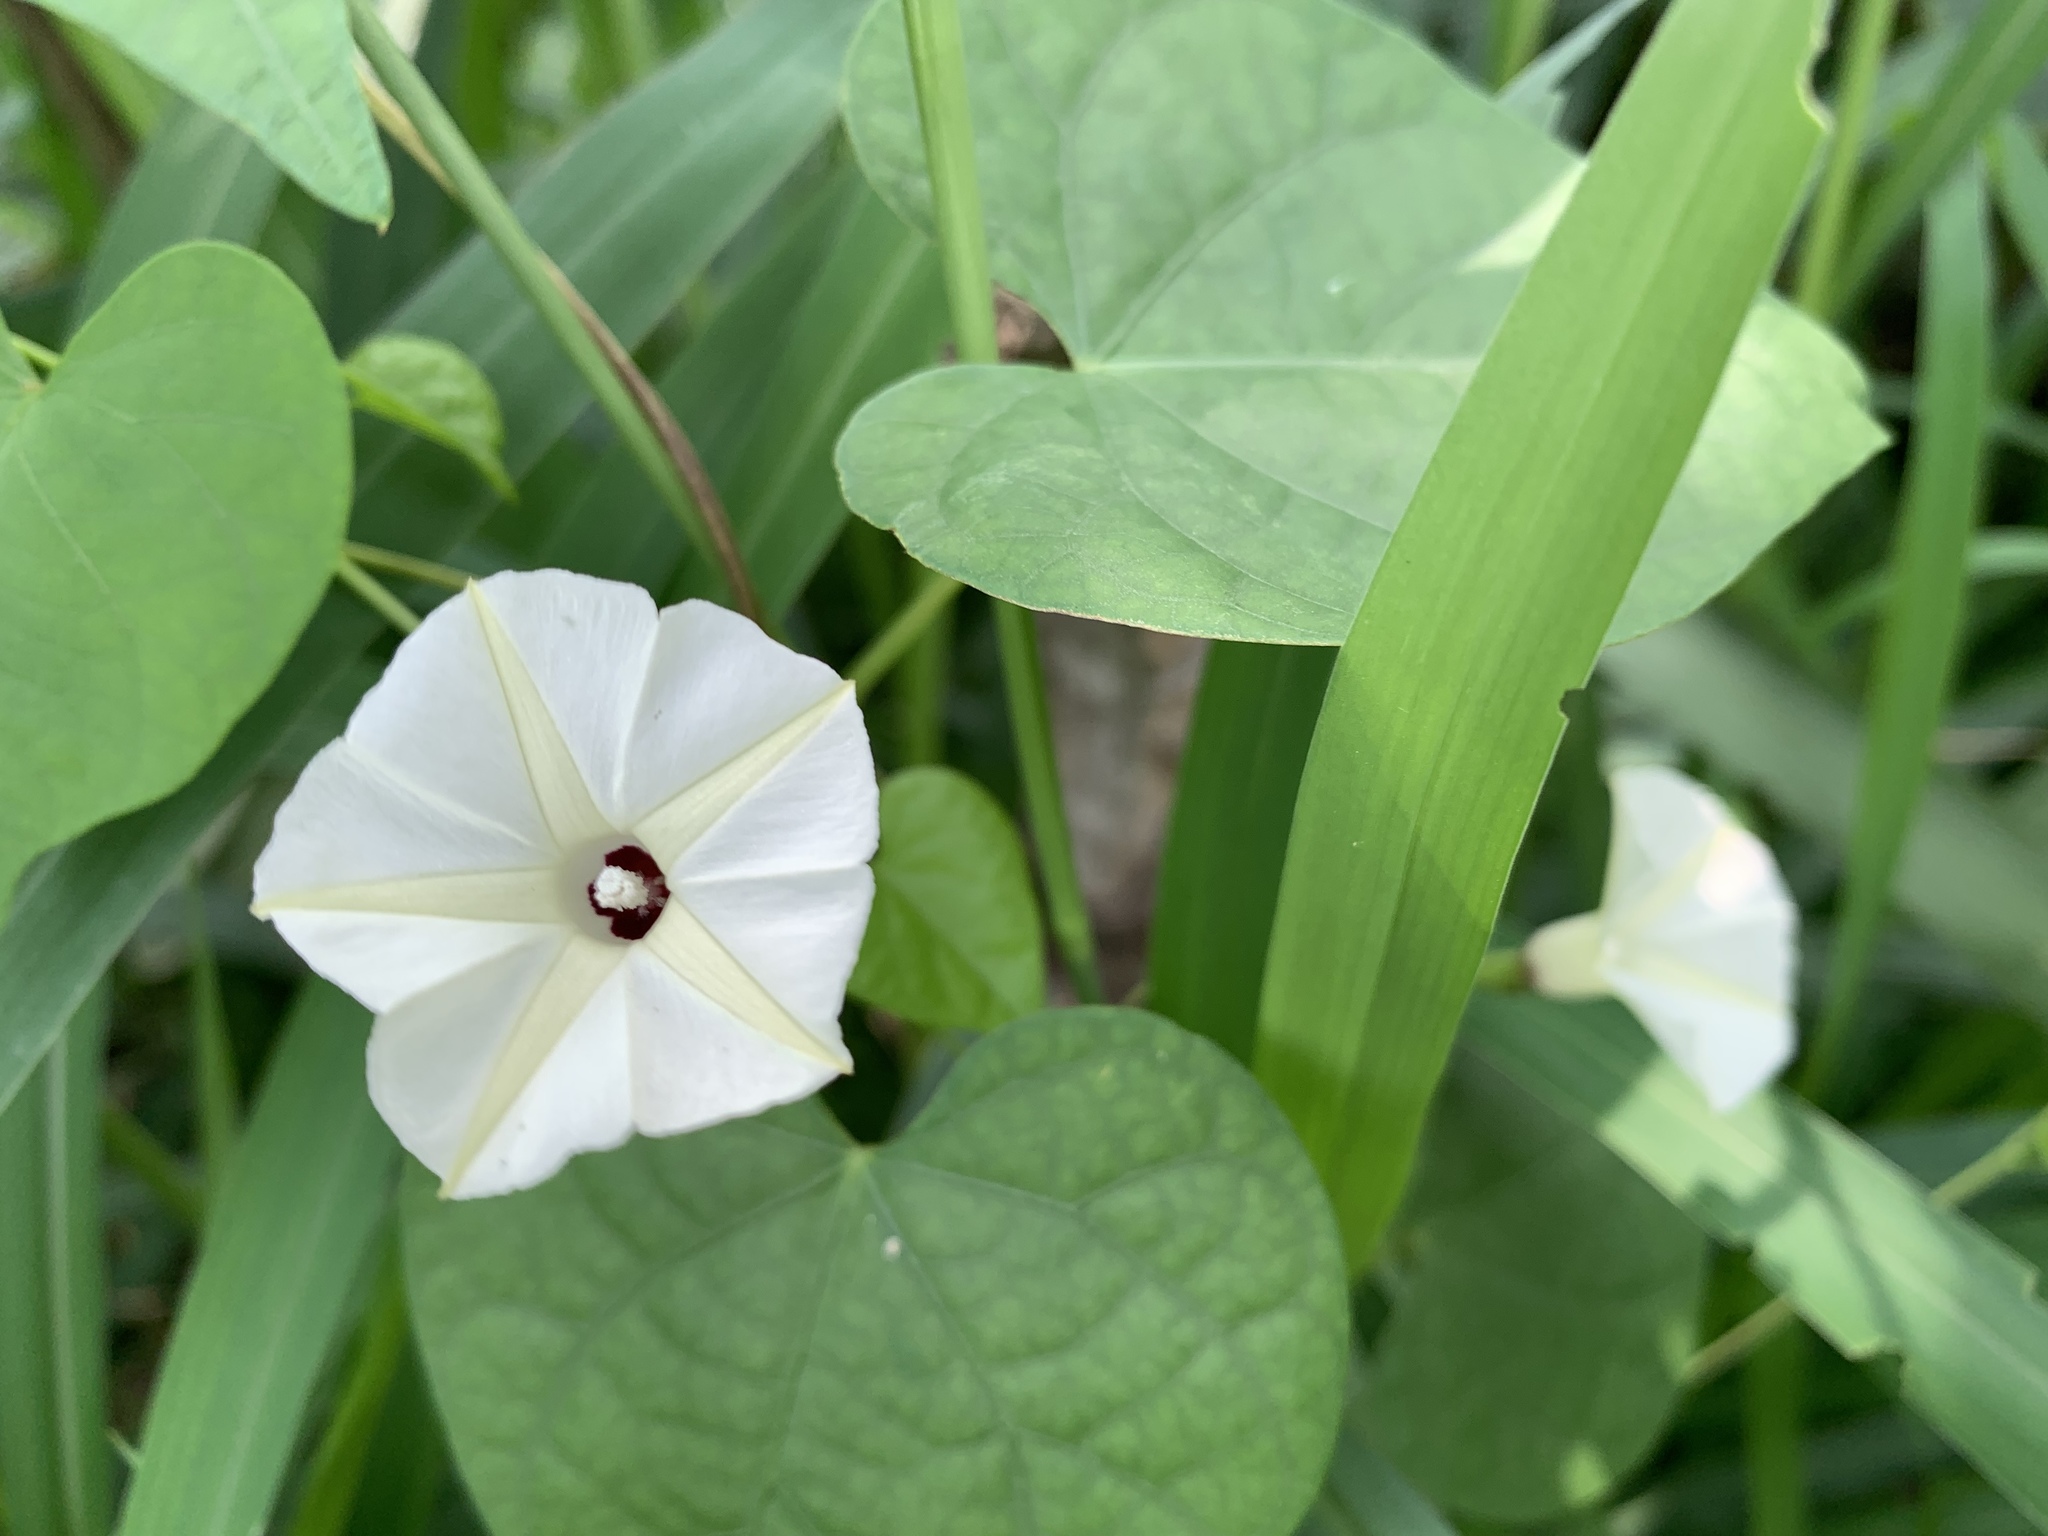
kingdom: Plantae
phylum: Tracheophyta
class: Magnoliopsida
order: Solanales
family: Convolvulaceae
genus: Ipomoea
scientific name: Ipomoea obscura
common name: Obscure morning-glory
